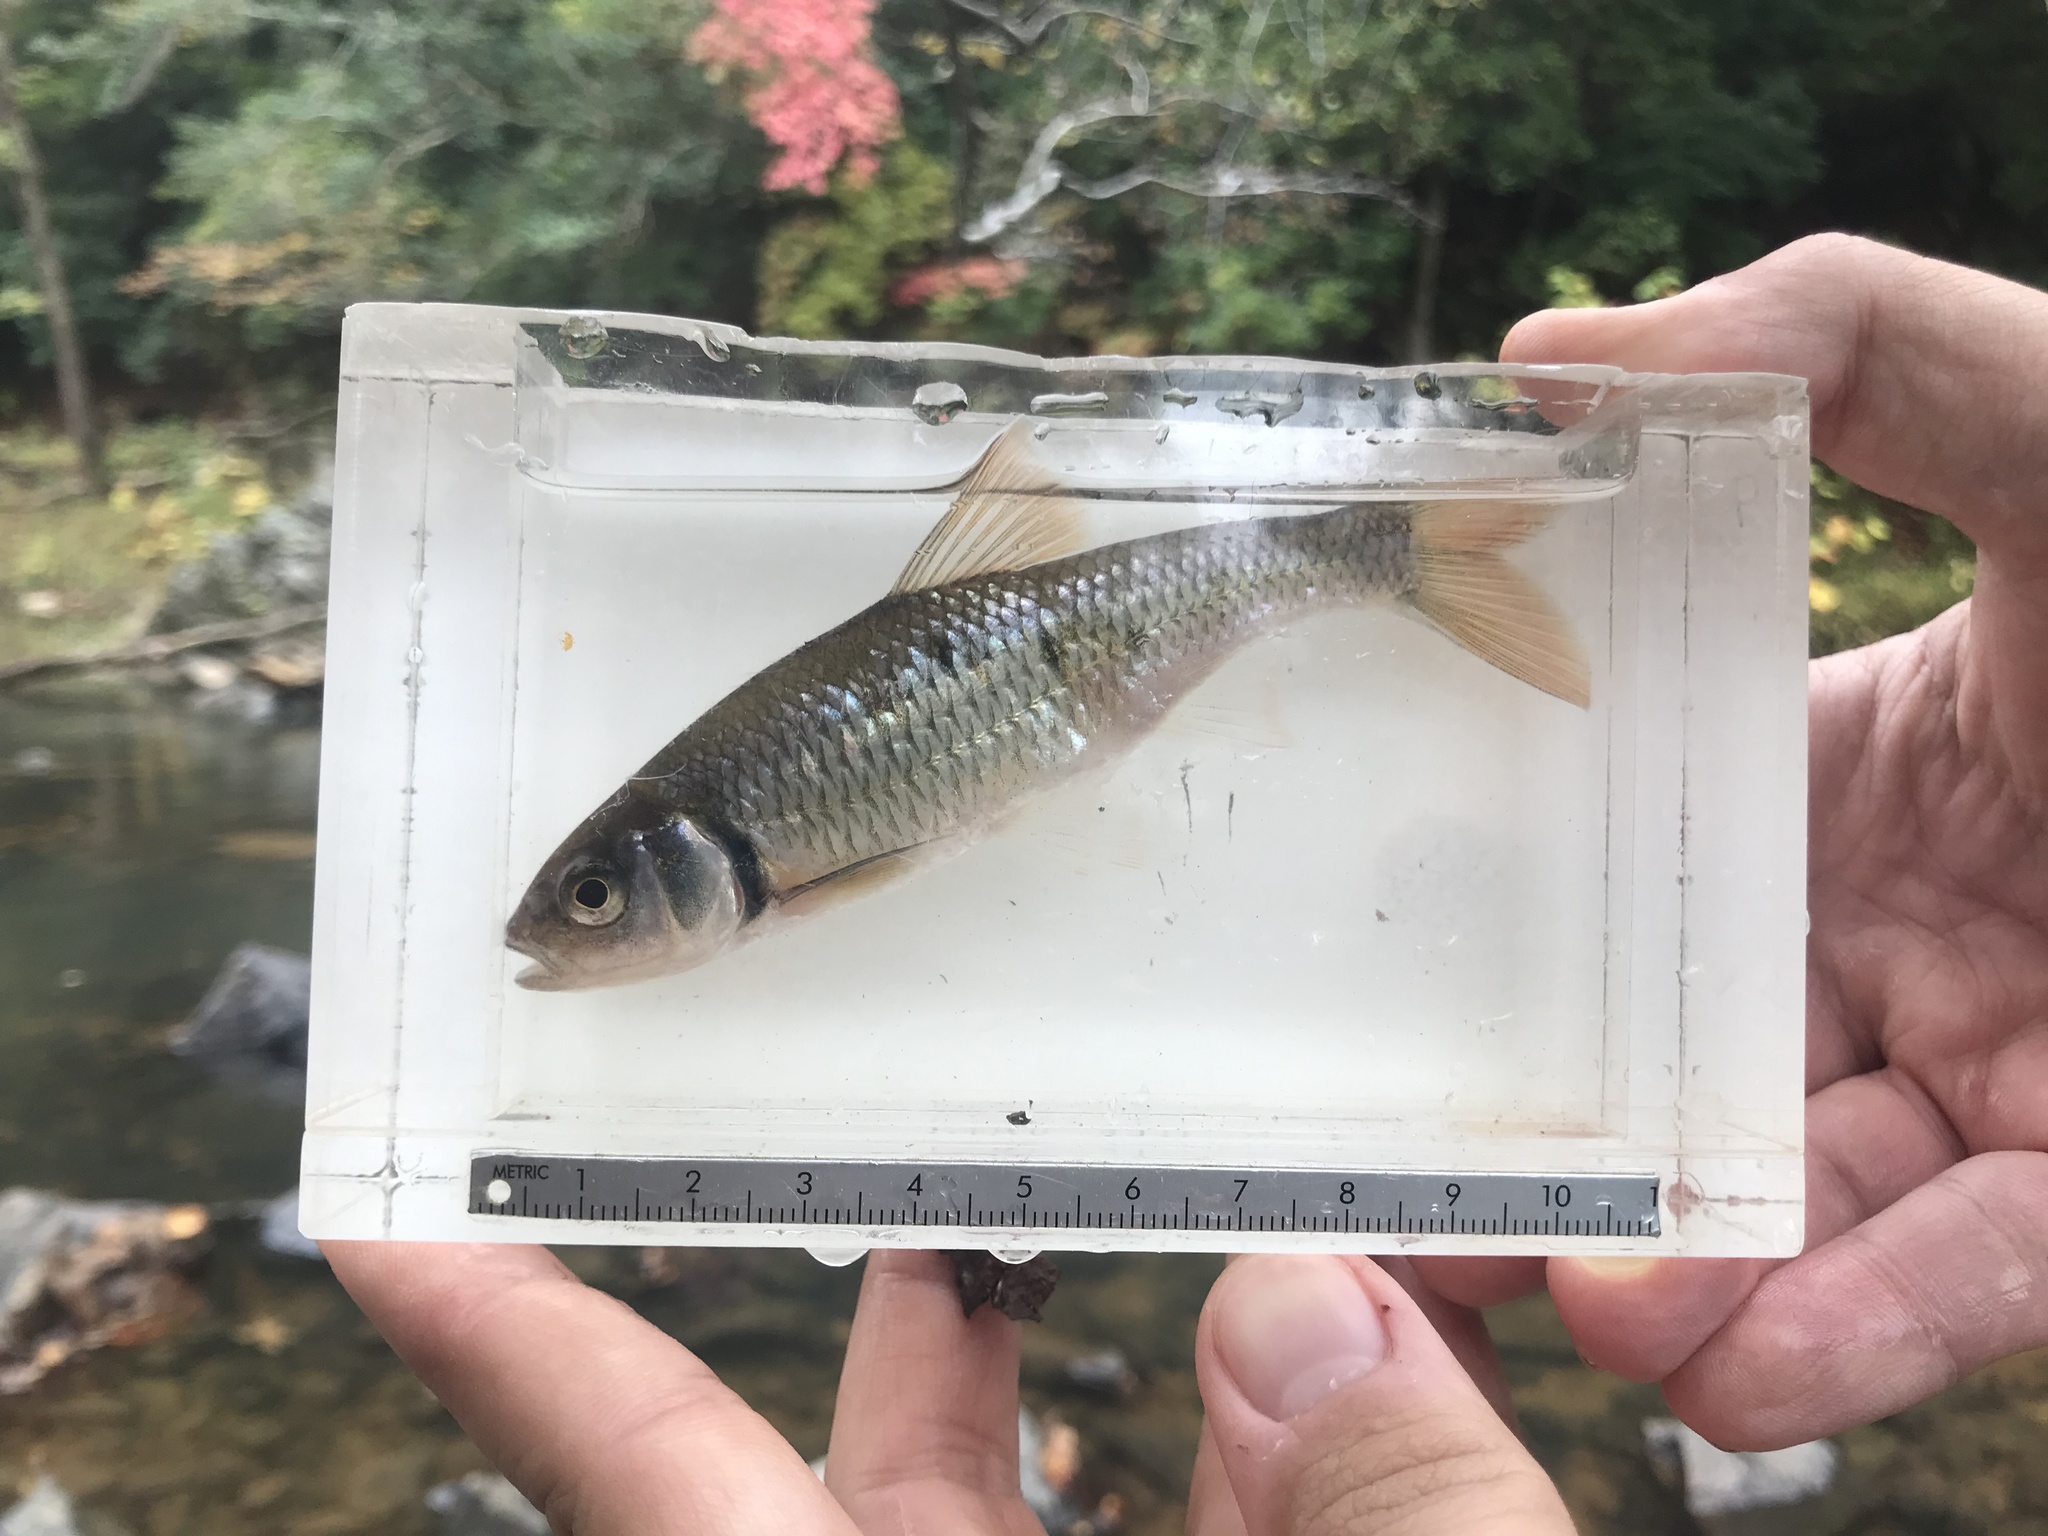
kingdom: Animalia
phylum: Chordata
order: Cypriniformes
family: Cyprinidae
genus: Luxilus
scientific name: Luxilus albeolus
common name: White shiner
